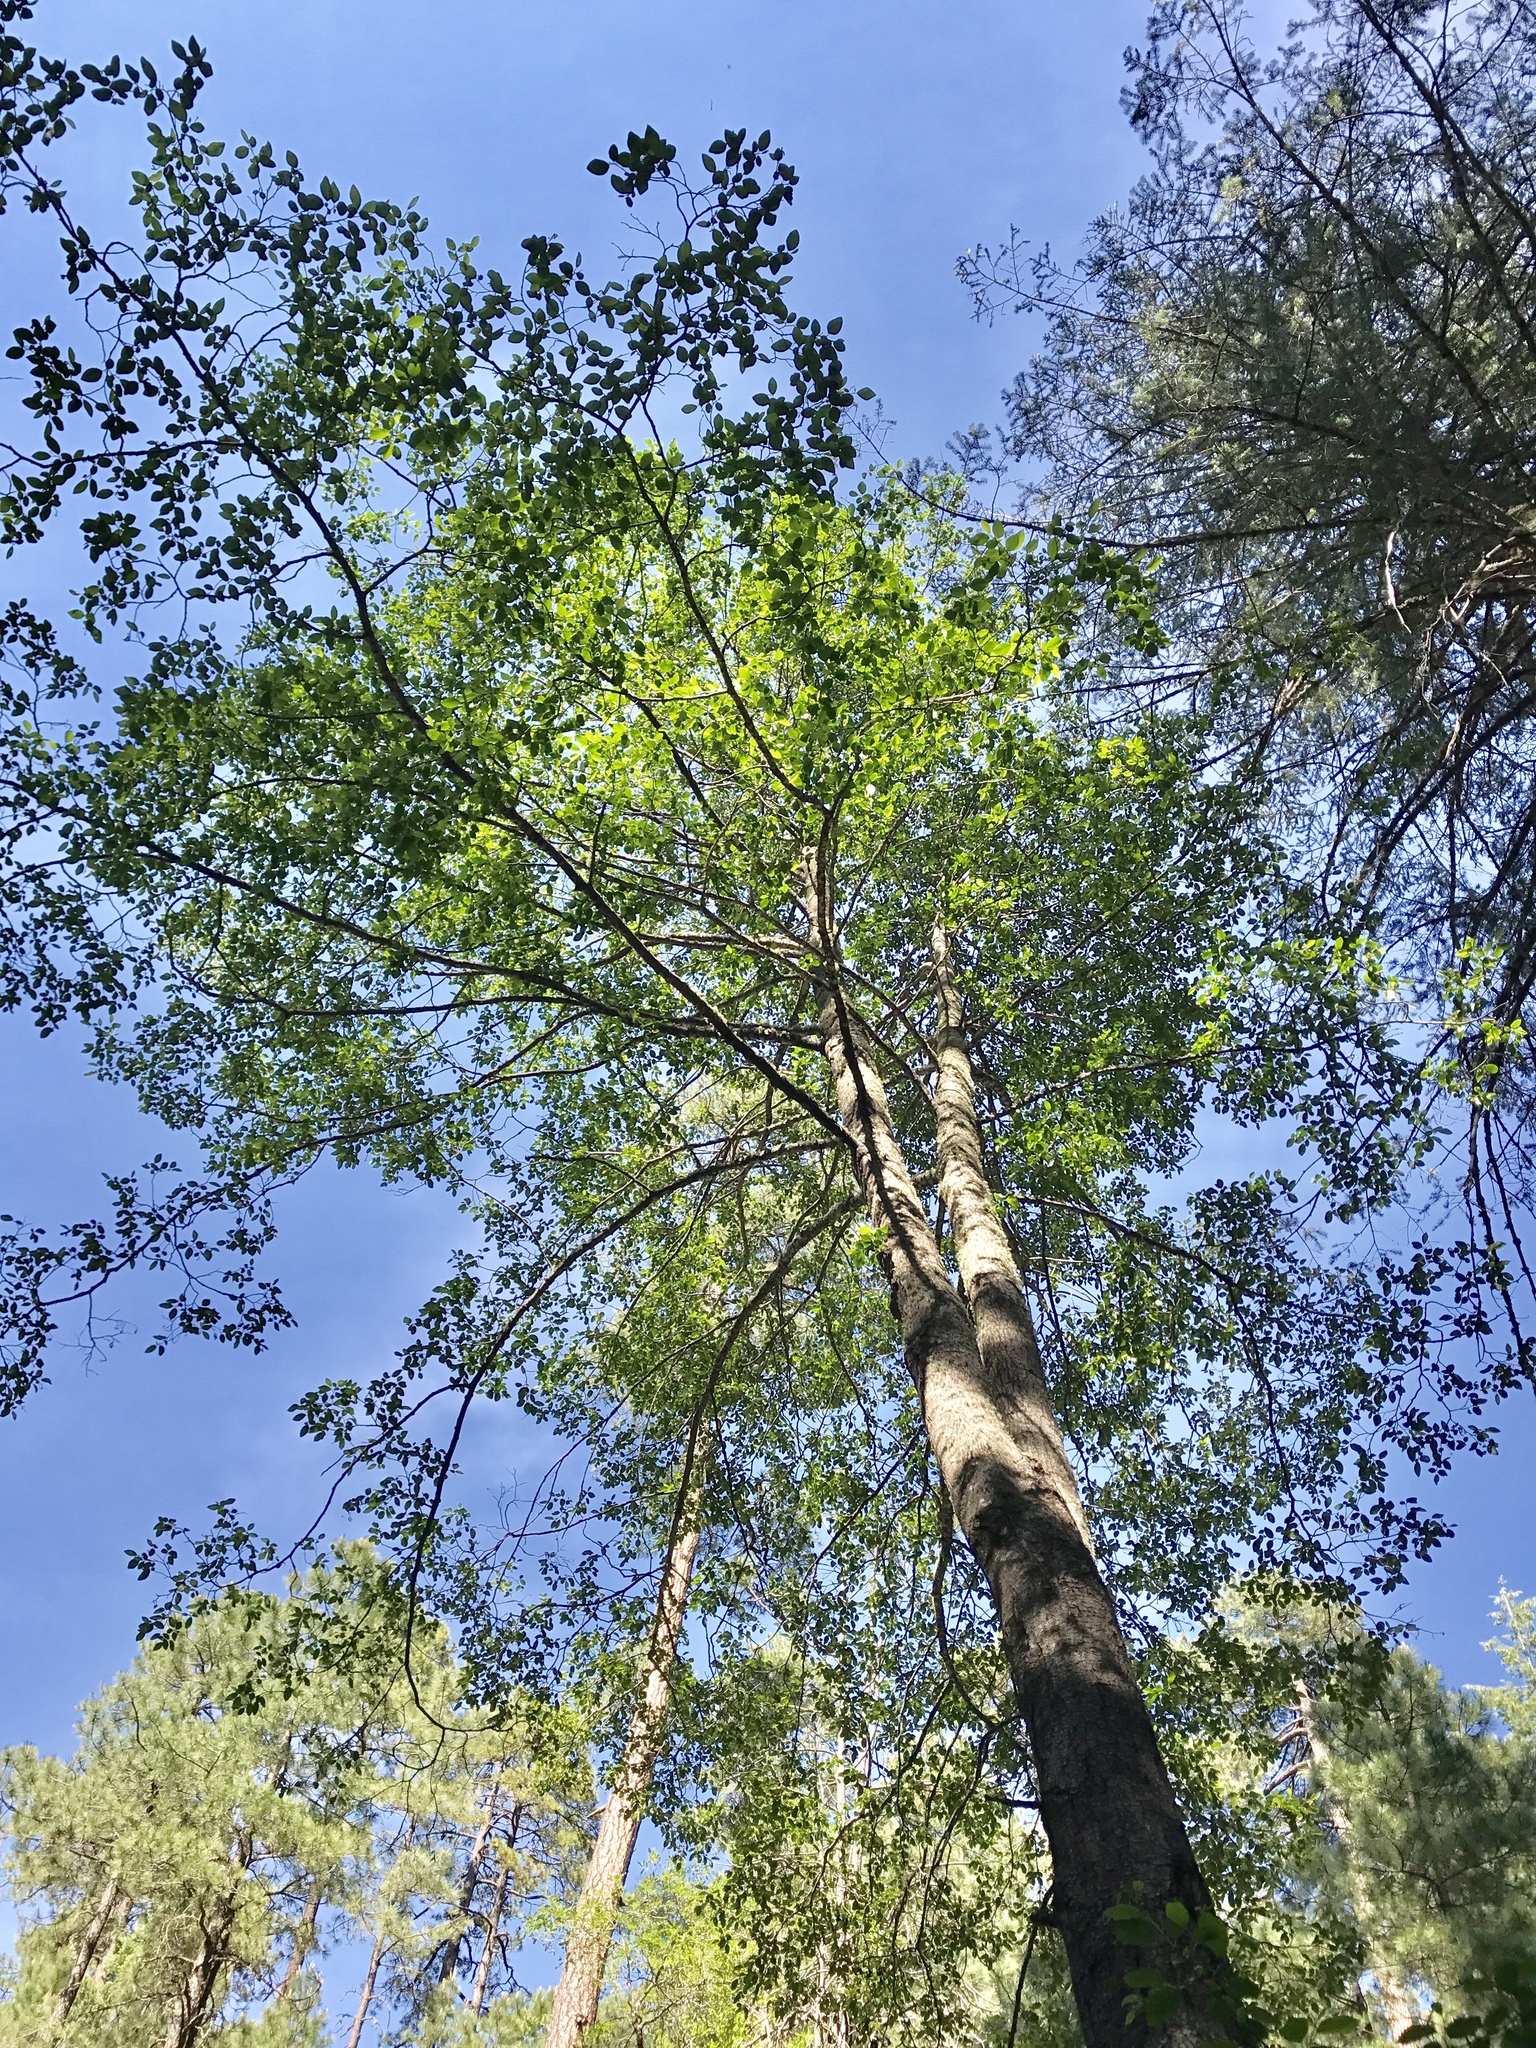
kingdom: Plantae
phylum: Tracheophyta
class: Magnoliopsida
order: Fagales
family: Betulaceae
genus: Alnus
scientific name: Alnus oblongifolia
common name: Arizona alder
